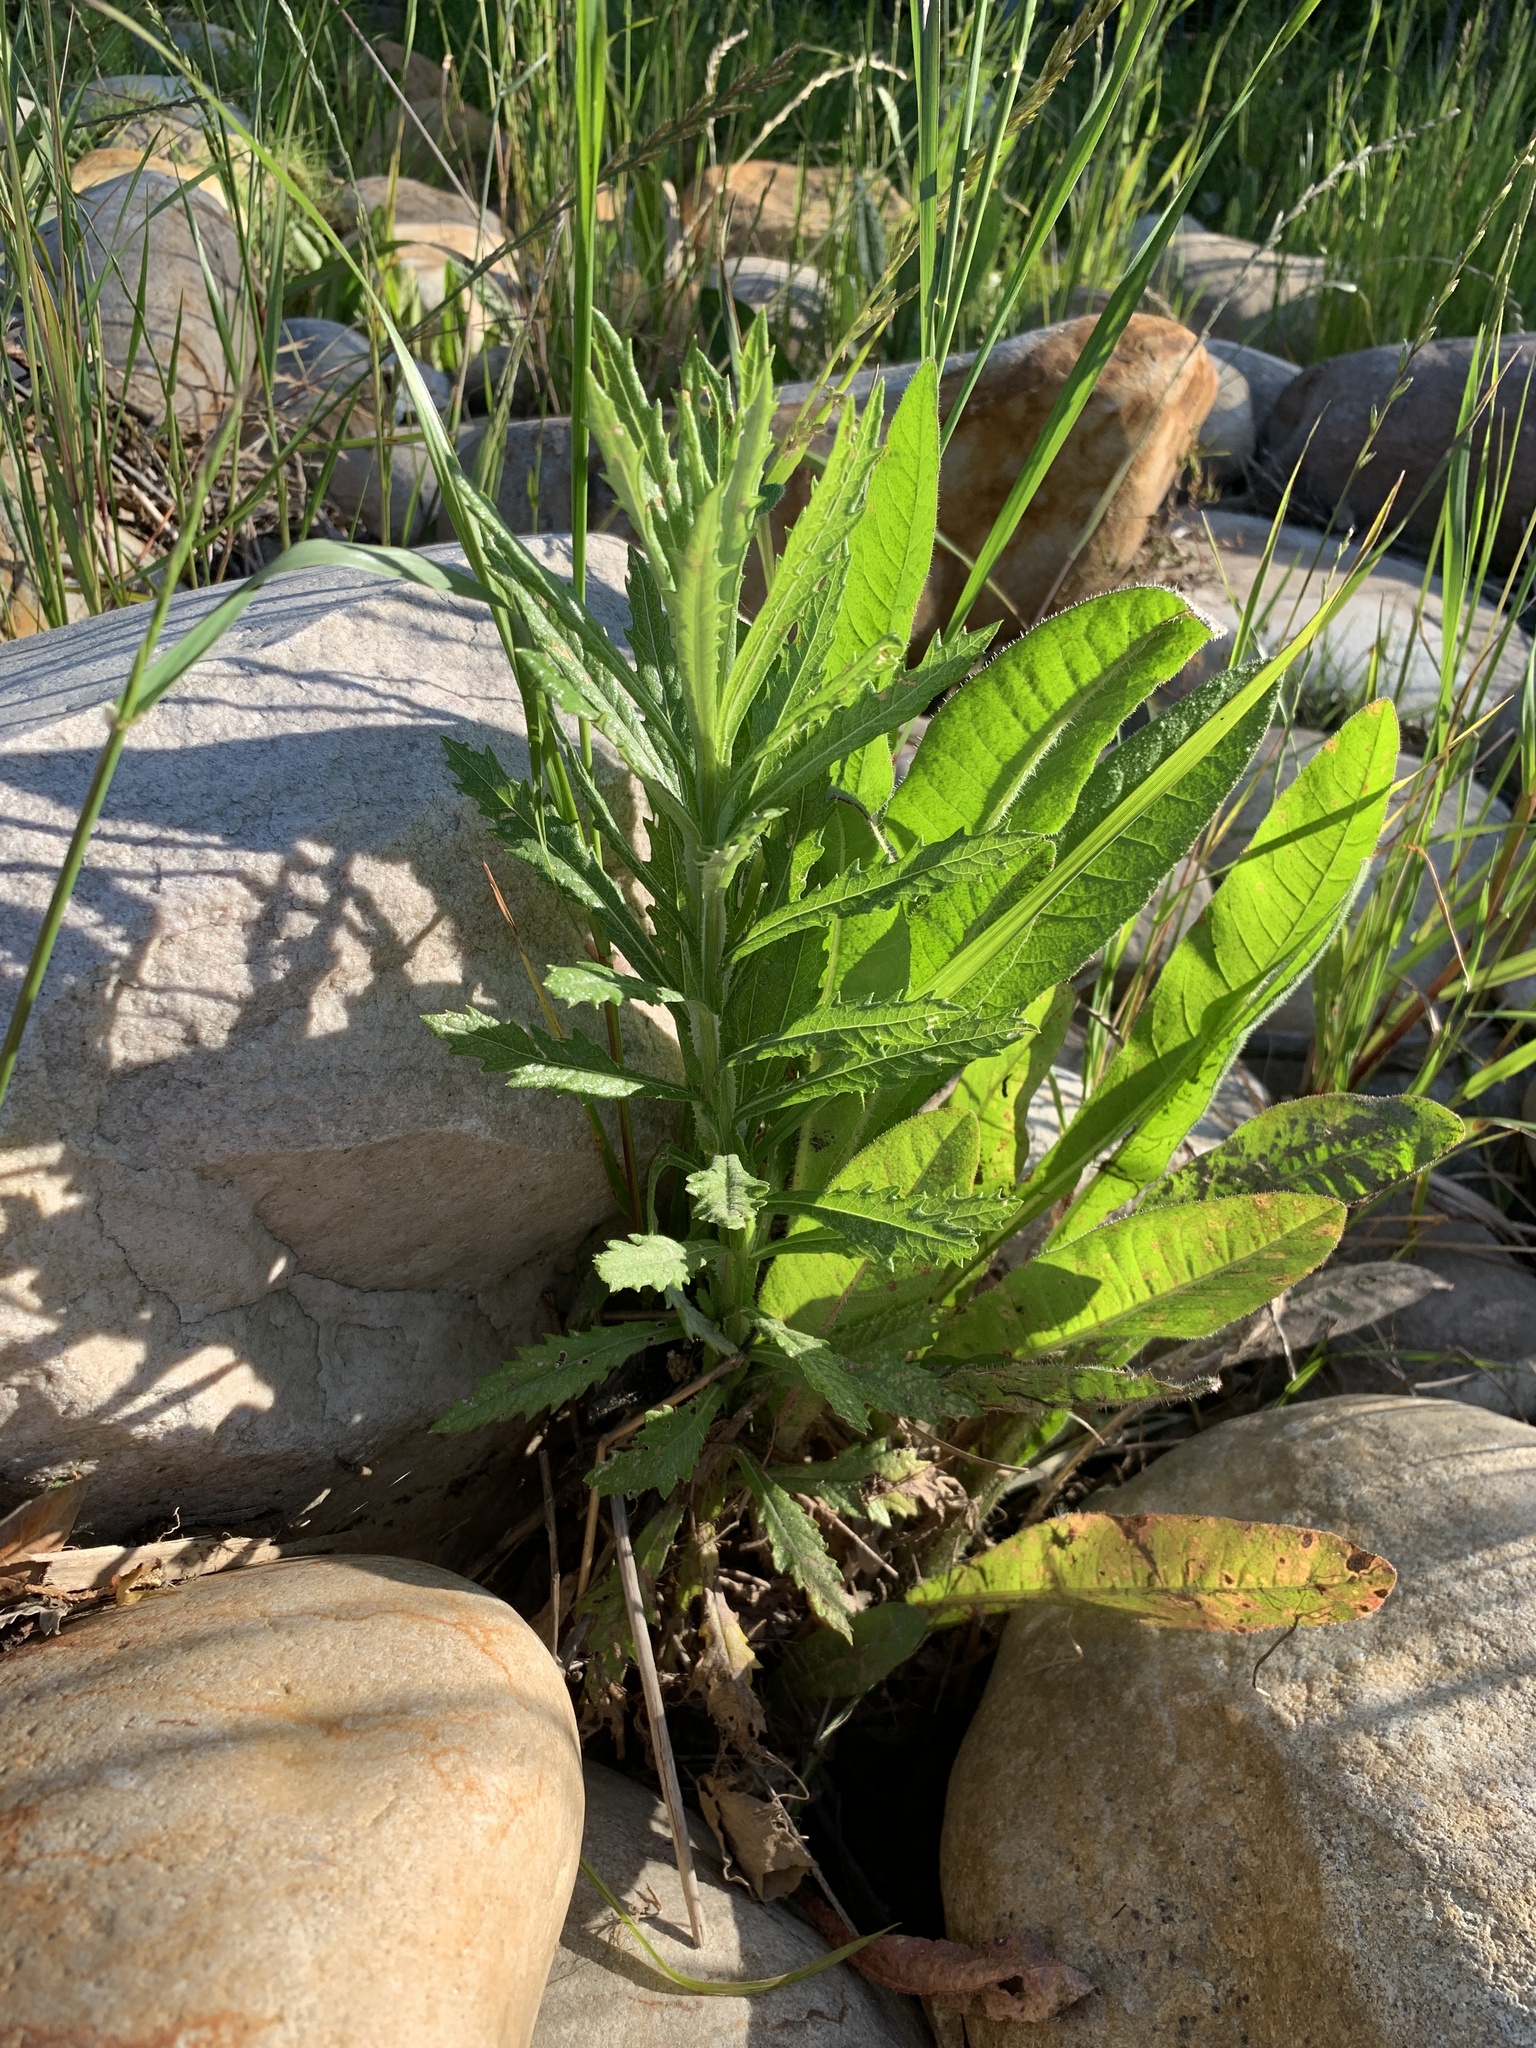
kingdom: Plantae
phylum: Tracheophyta
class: Magnoliopsida
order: Asterales
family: Asteraceae
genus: Senecio
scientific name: Senecio pterophorus
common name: Shoddy ragwort
